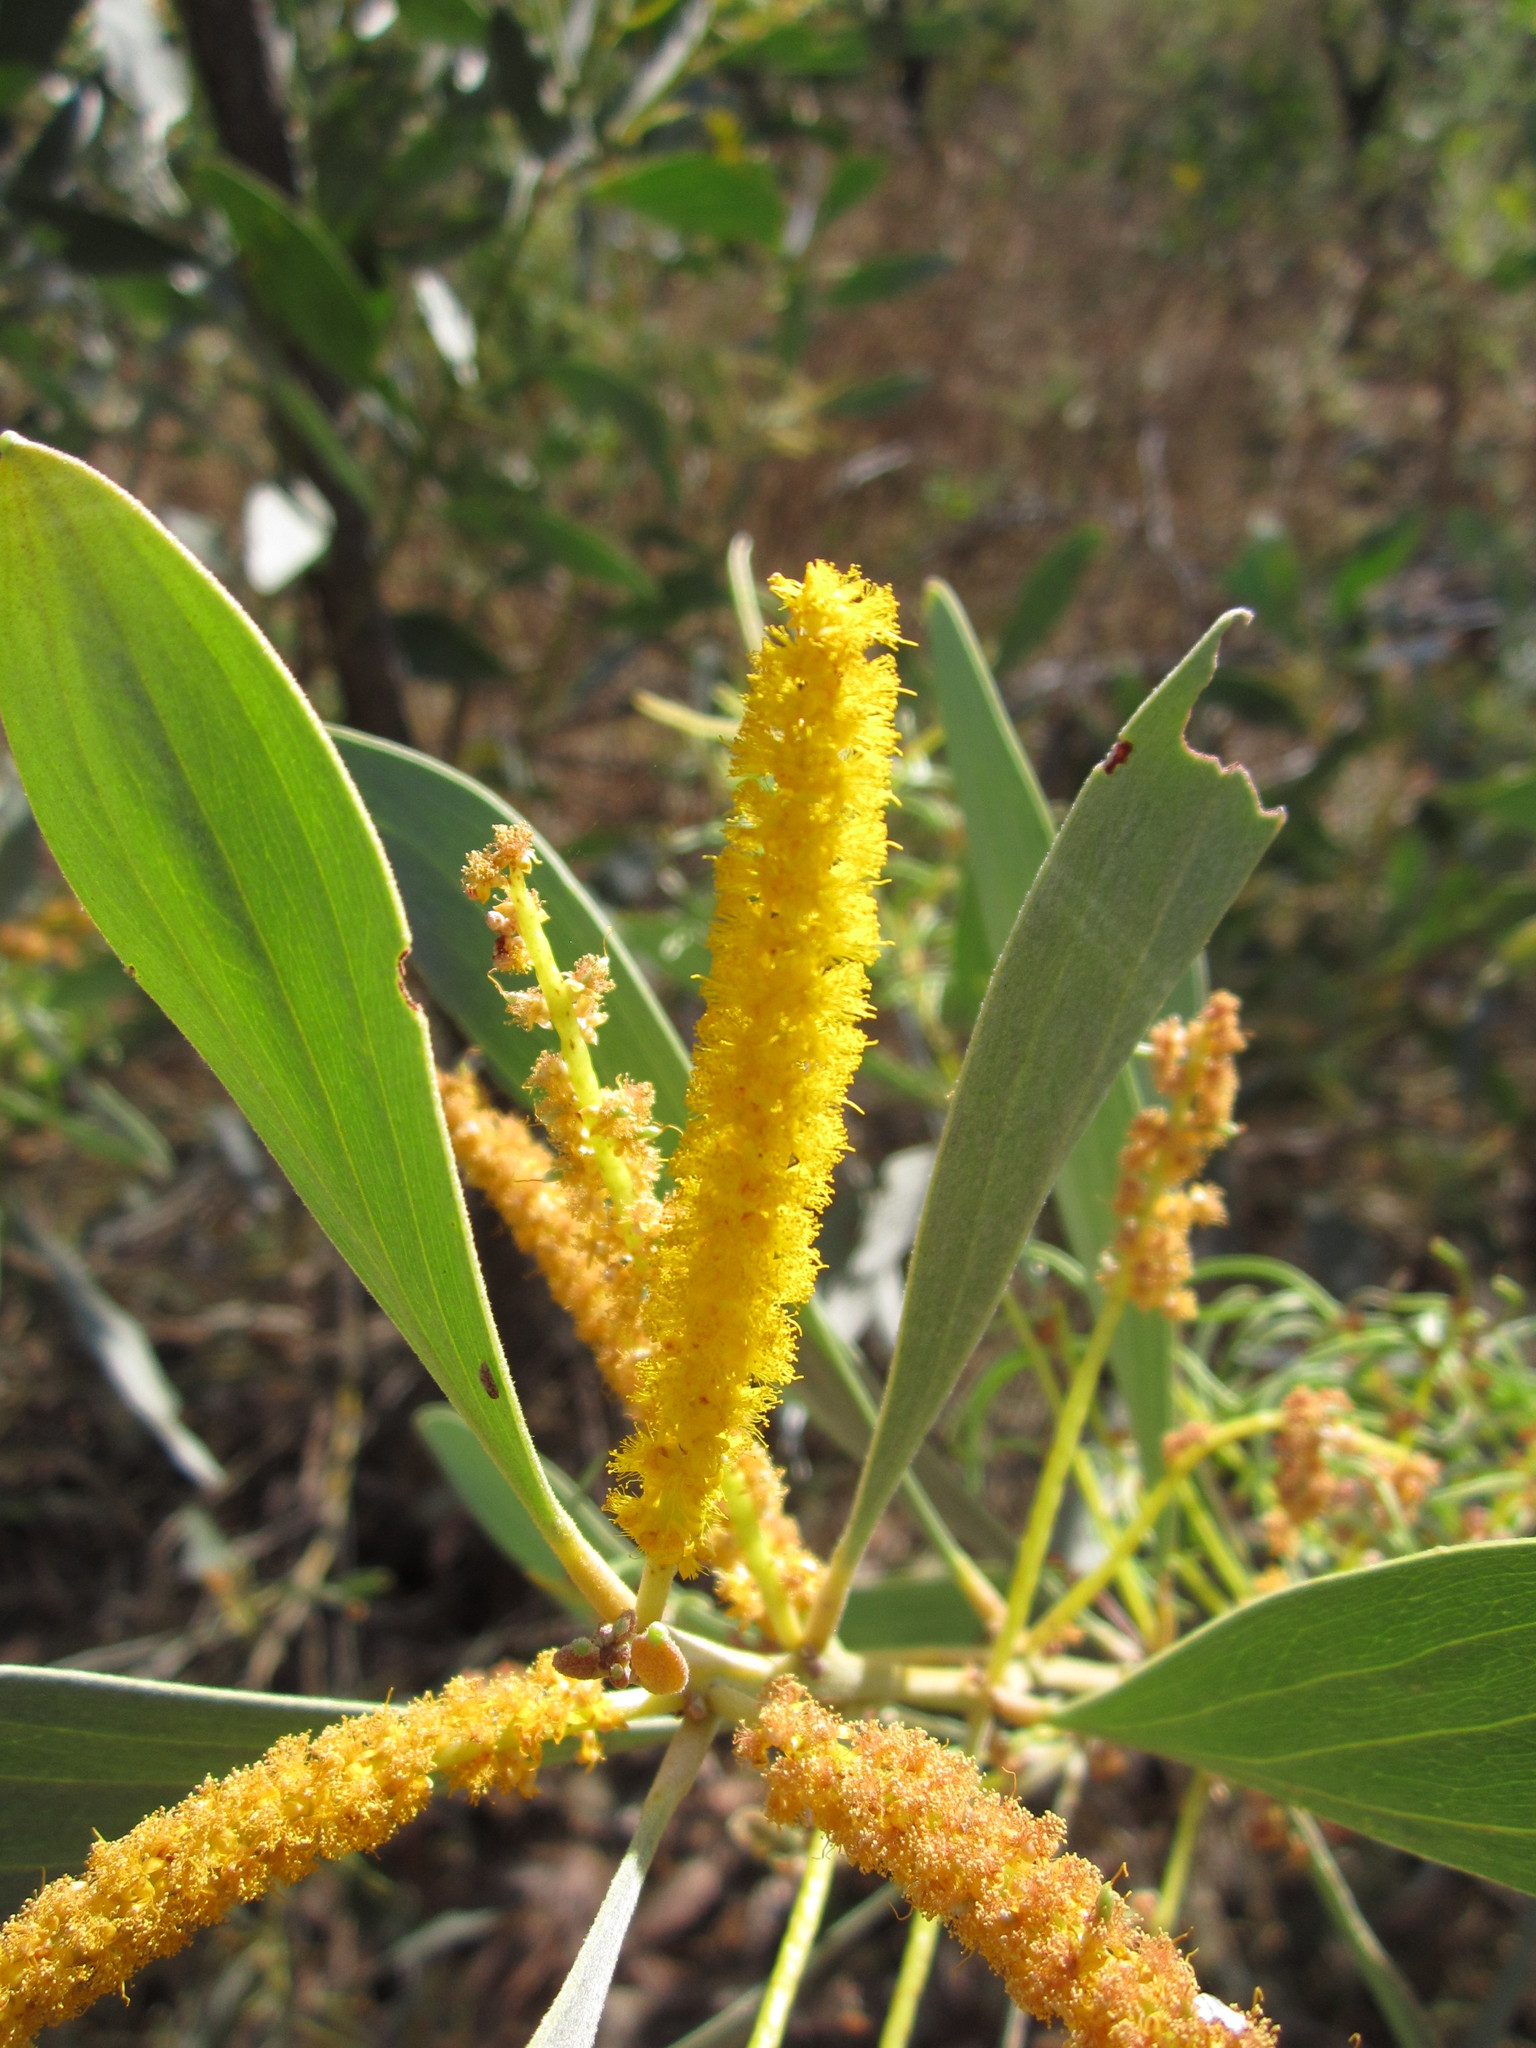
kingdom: Plantae
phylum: Tracheophyta
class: Magnoliopsida
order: Fabales
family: Fabaceae
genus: Acacia
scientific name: Acacia difficilis
